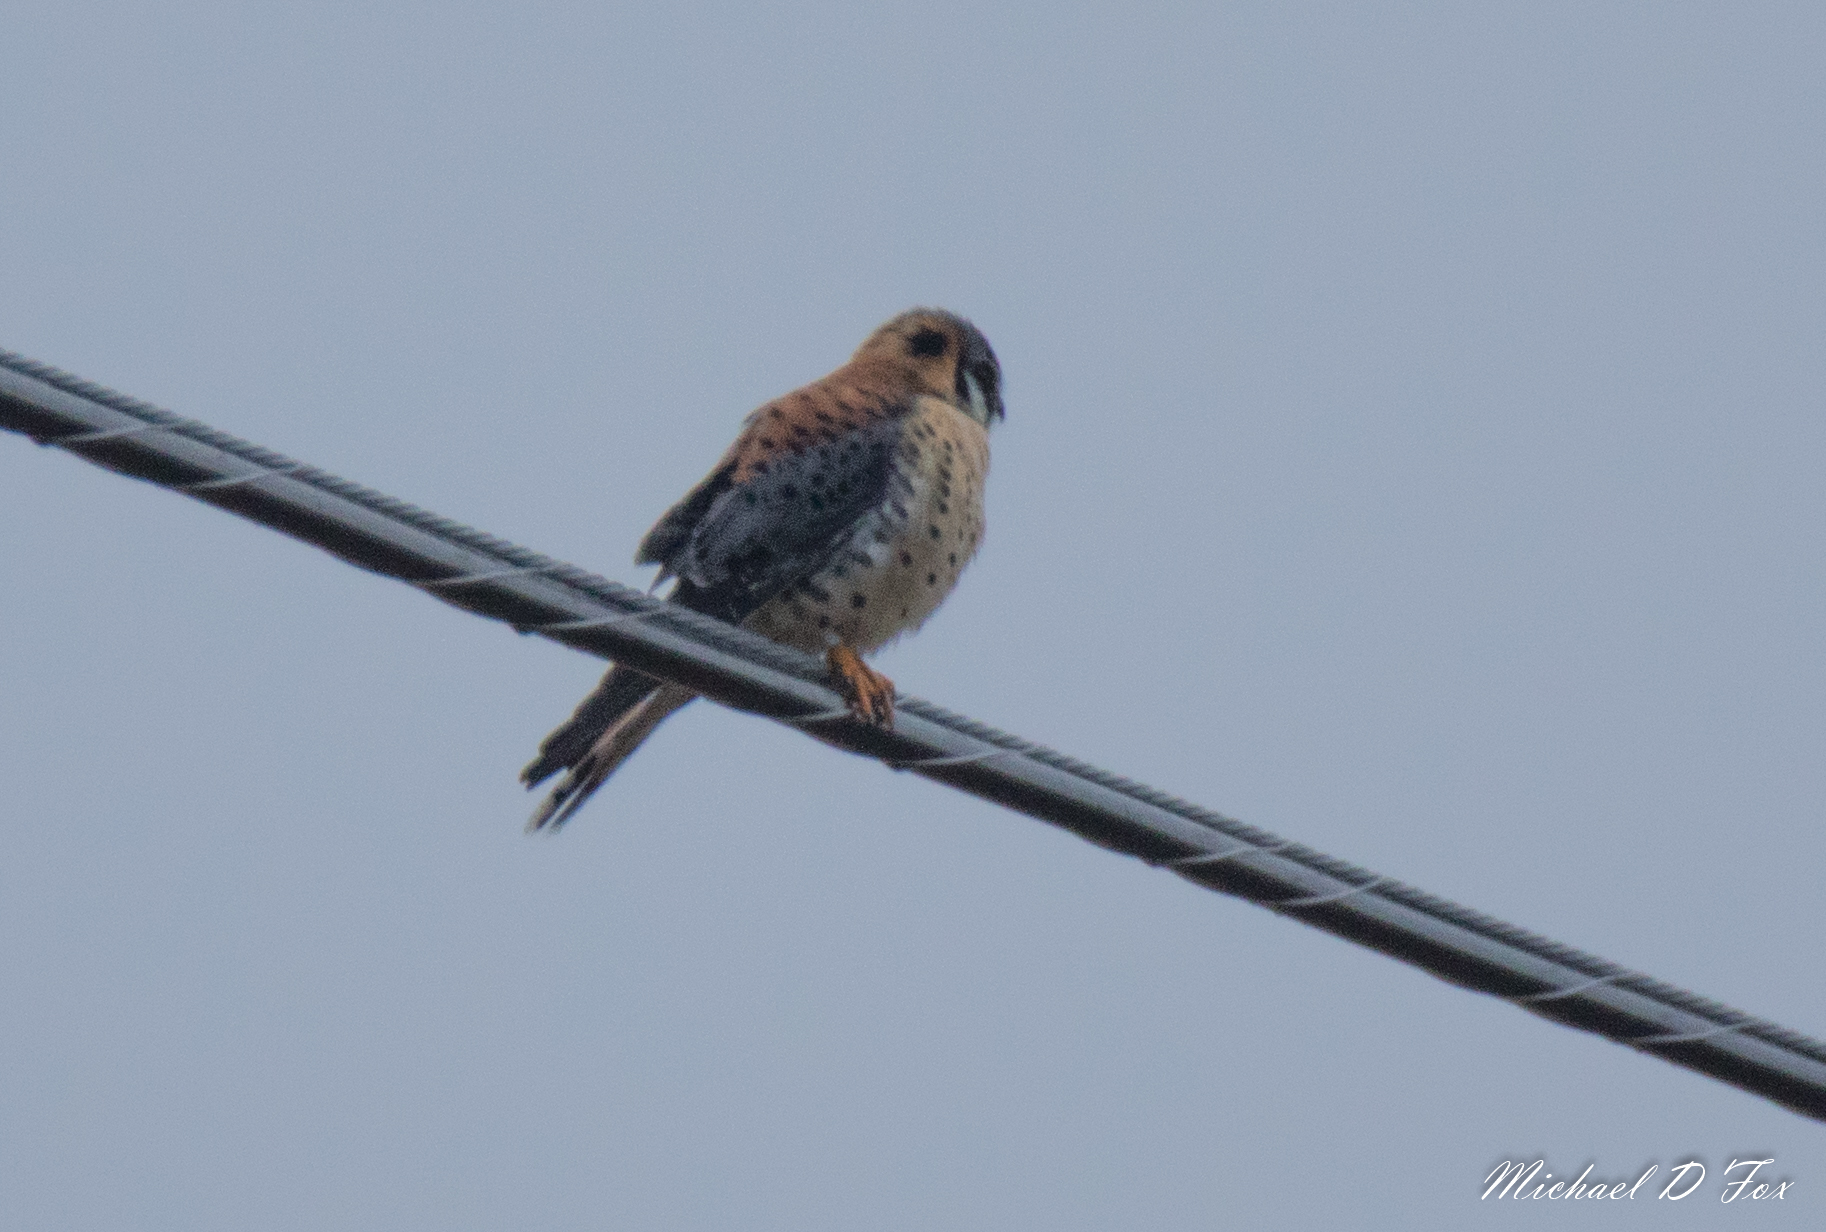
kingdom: Animalia
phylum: Chordata
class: Aves
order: Falconiformes
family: Falconidae
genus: Falco
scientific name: Falco sparverius
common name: American kestrel
